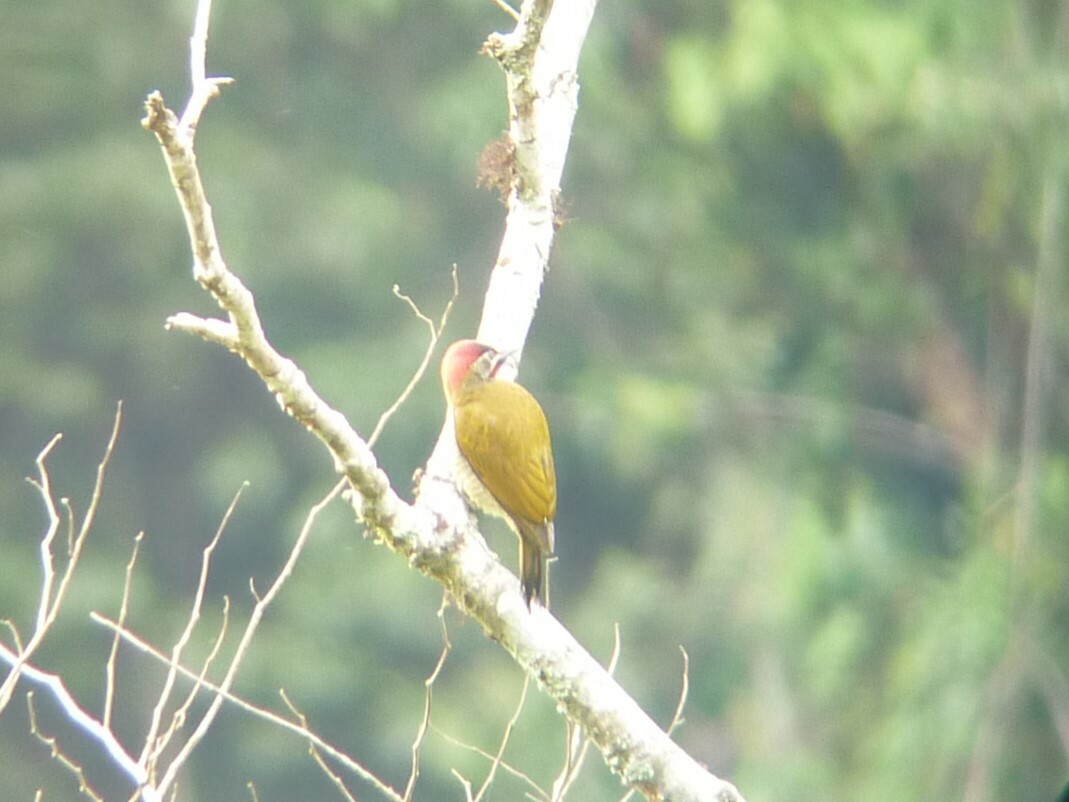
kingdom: Animalia
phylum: Chordata
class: Aves
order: Piciformes
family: Picidae
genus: Colaptes
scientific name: Colaptes rubiginosus
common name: Golden-olive woodpecker
